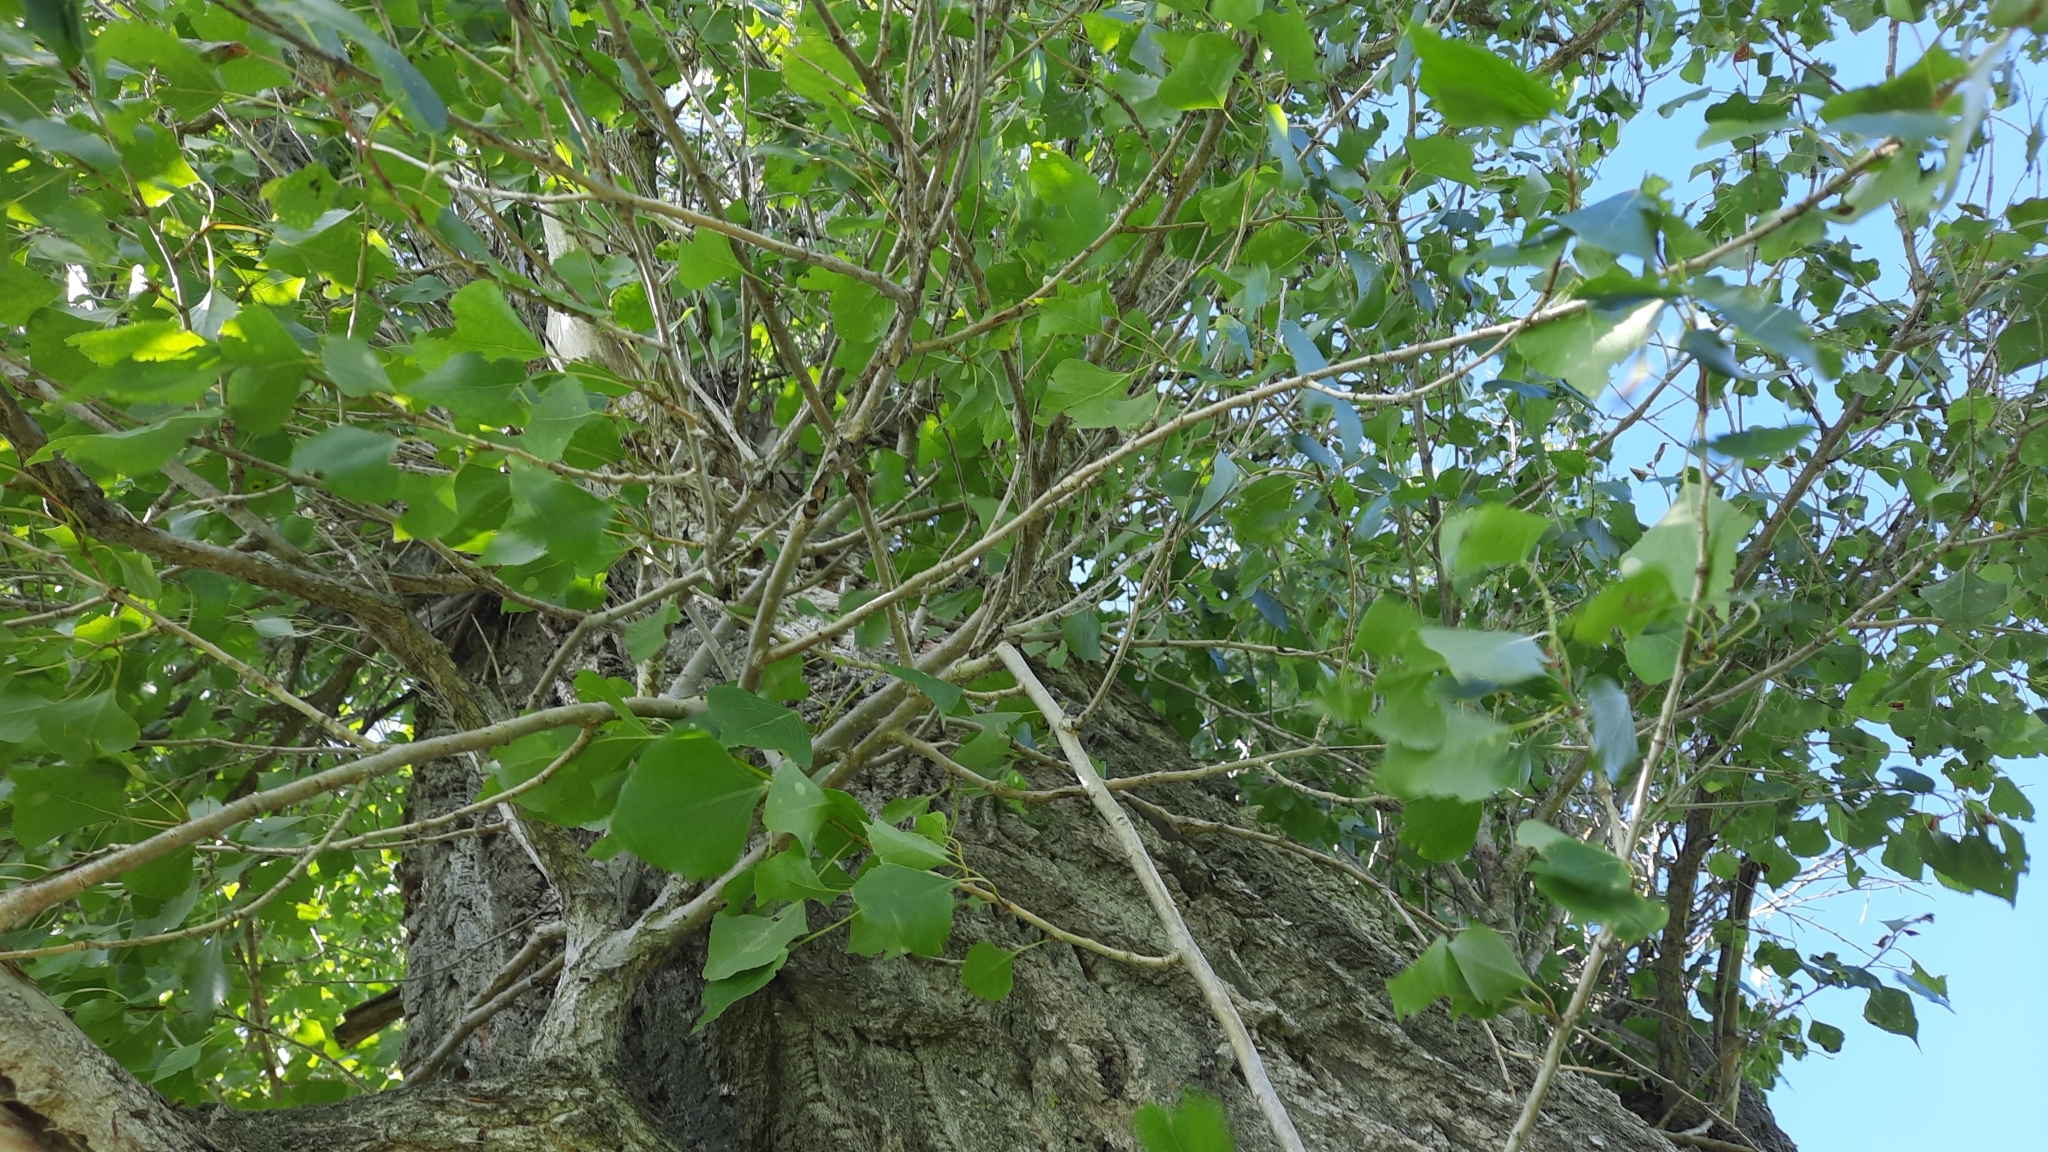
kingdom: Plantae
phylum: Tracheophyta
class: Magnoliopsida
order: Malpighiales
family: Salicaceae
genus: Populus
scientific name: Populus nigra
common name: Black poplar
